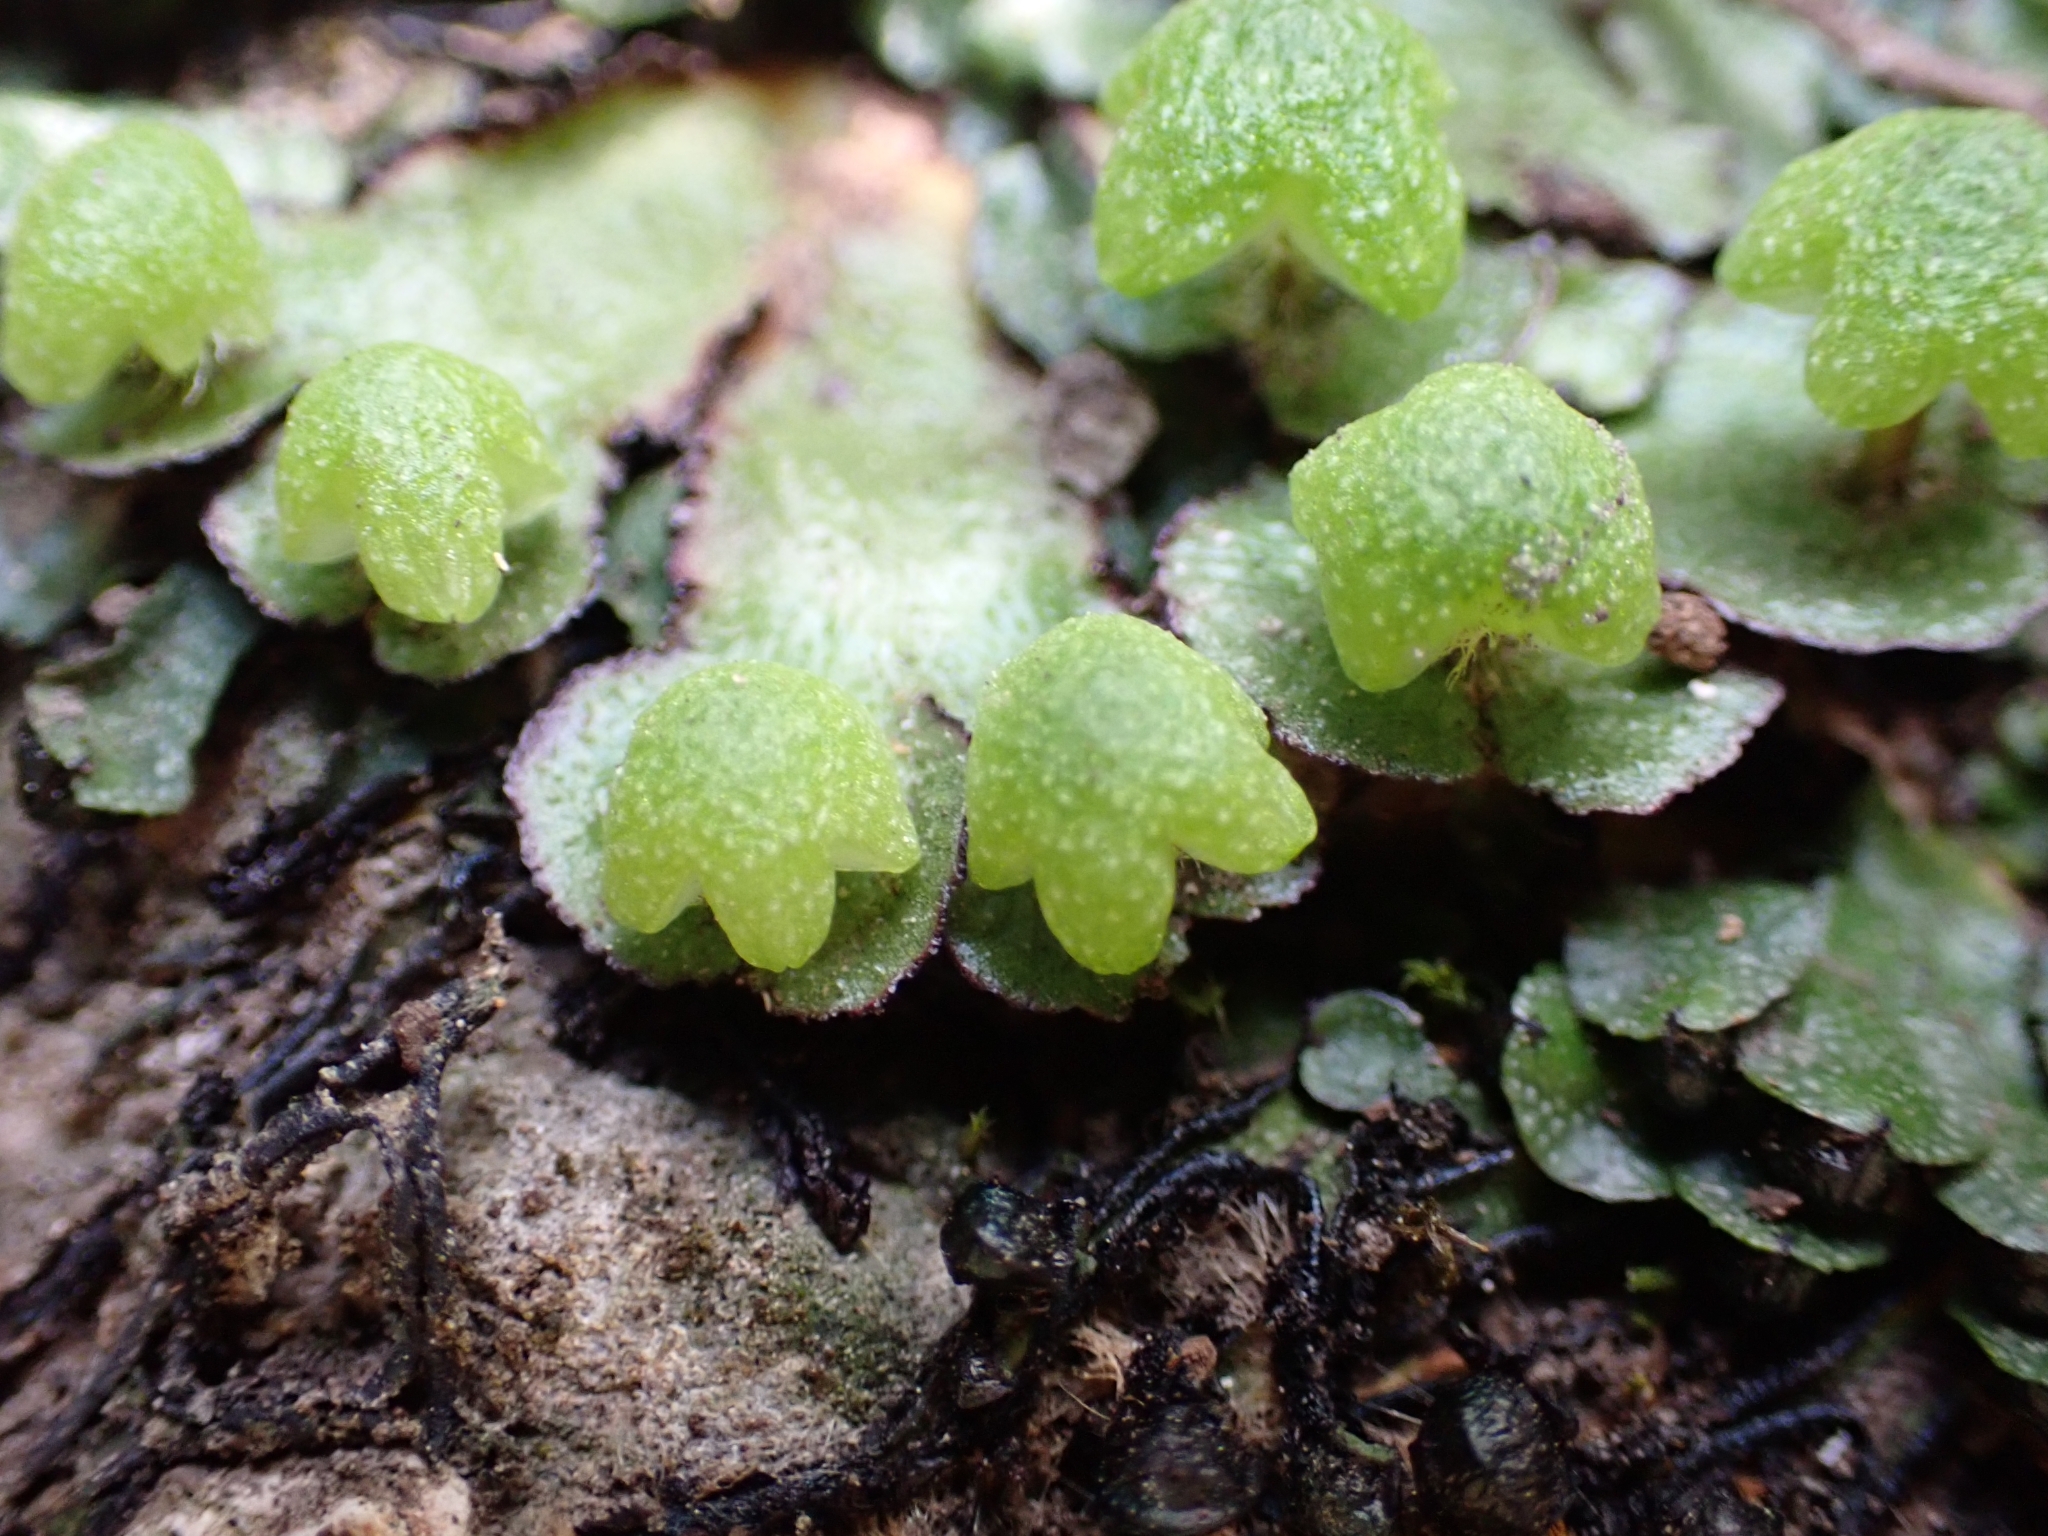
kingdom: Plantae
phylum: Marchantiophyta
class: Marchantiopsida
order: Marchantiales
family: Aytoniaceae
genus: Reboulia
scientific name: Reboulia hemisphaerica
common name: Purple-margined liverwort
